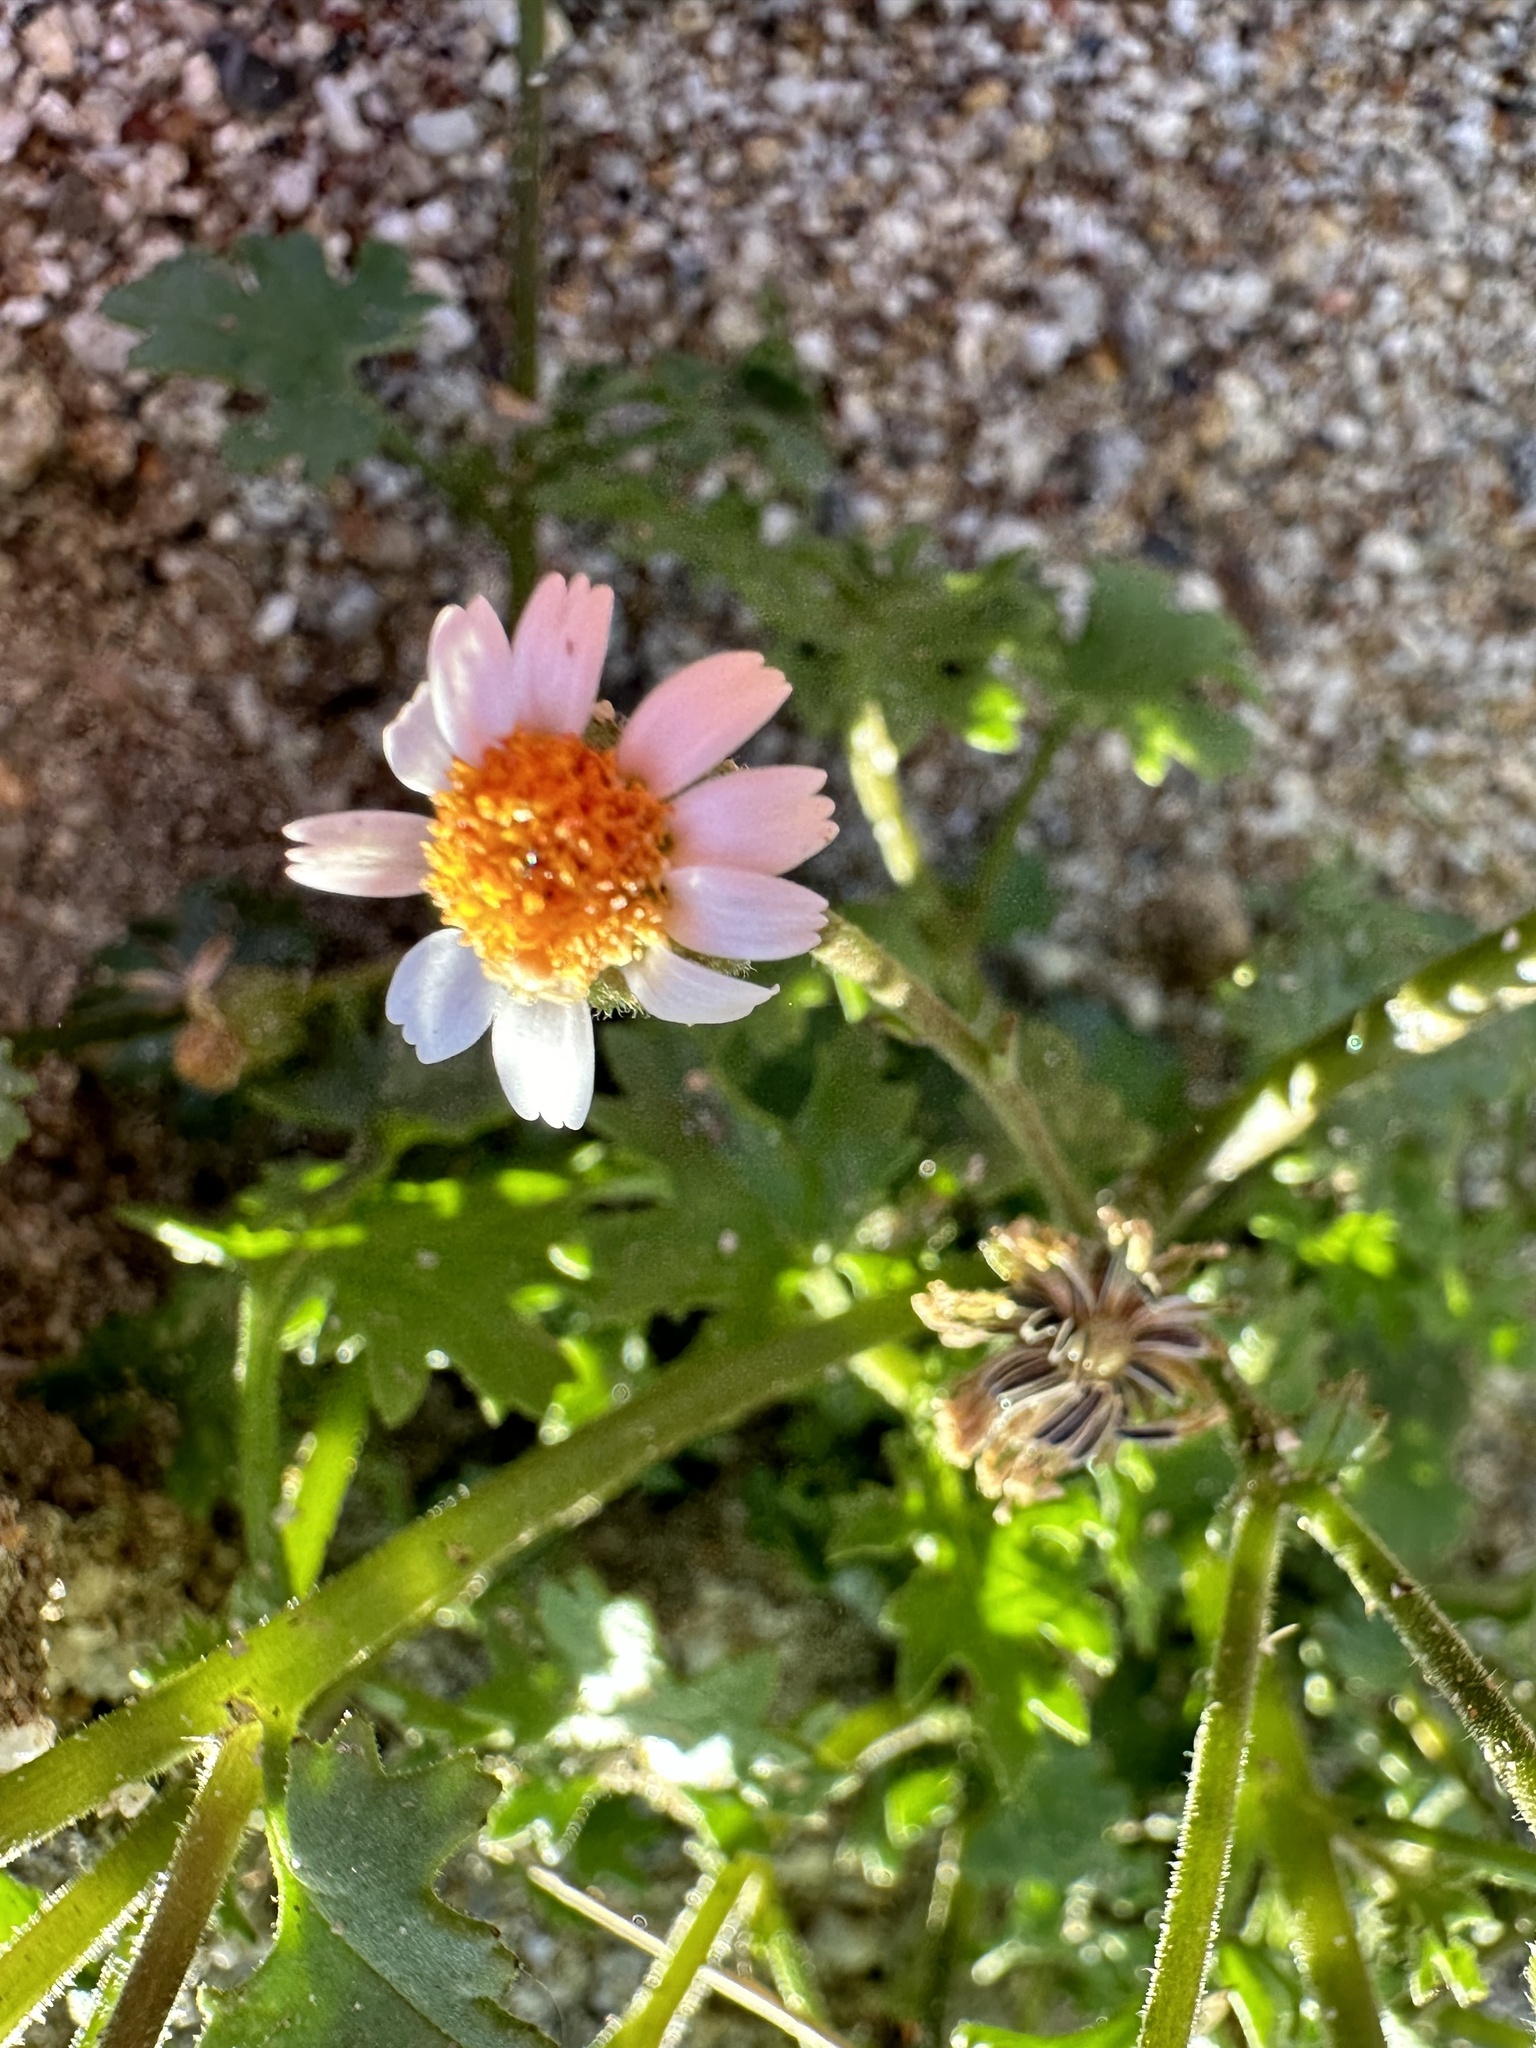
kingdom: Plantae
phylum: Tracheophyta
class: Magnoliopsida
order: Asterales
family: Asteraceae
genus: Laphamia
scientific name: Laphamia emoryi
